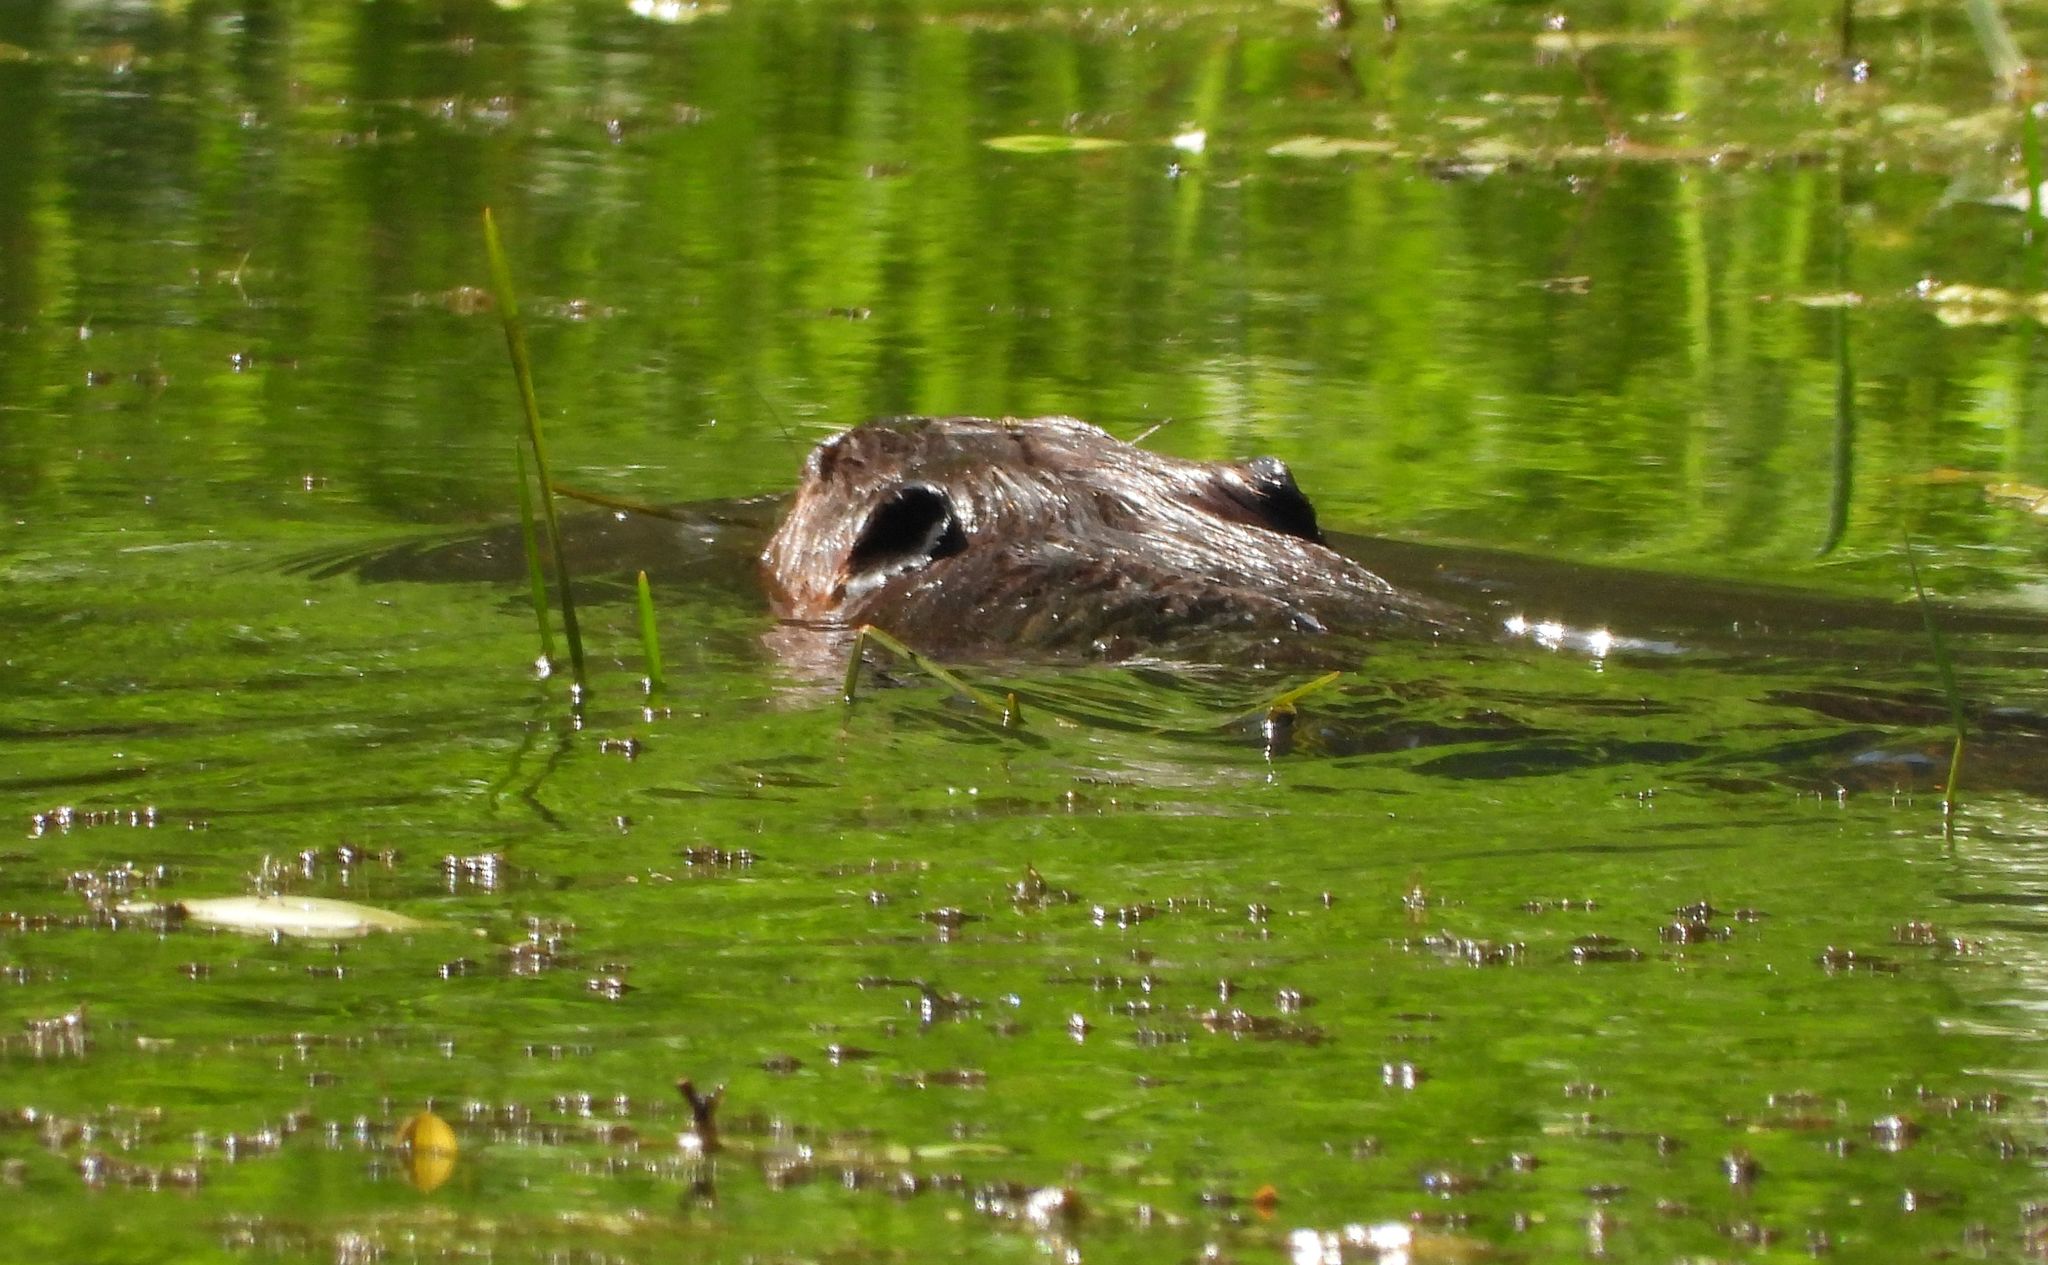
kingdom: Animalia
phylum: Chordata
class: Mammalia
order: Rodentia
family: Castoridae
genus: Castor
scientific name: Castor canadensis
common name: American beaver
